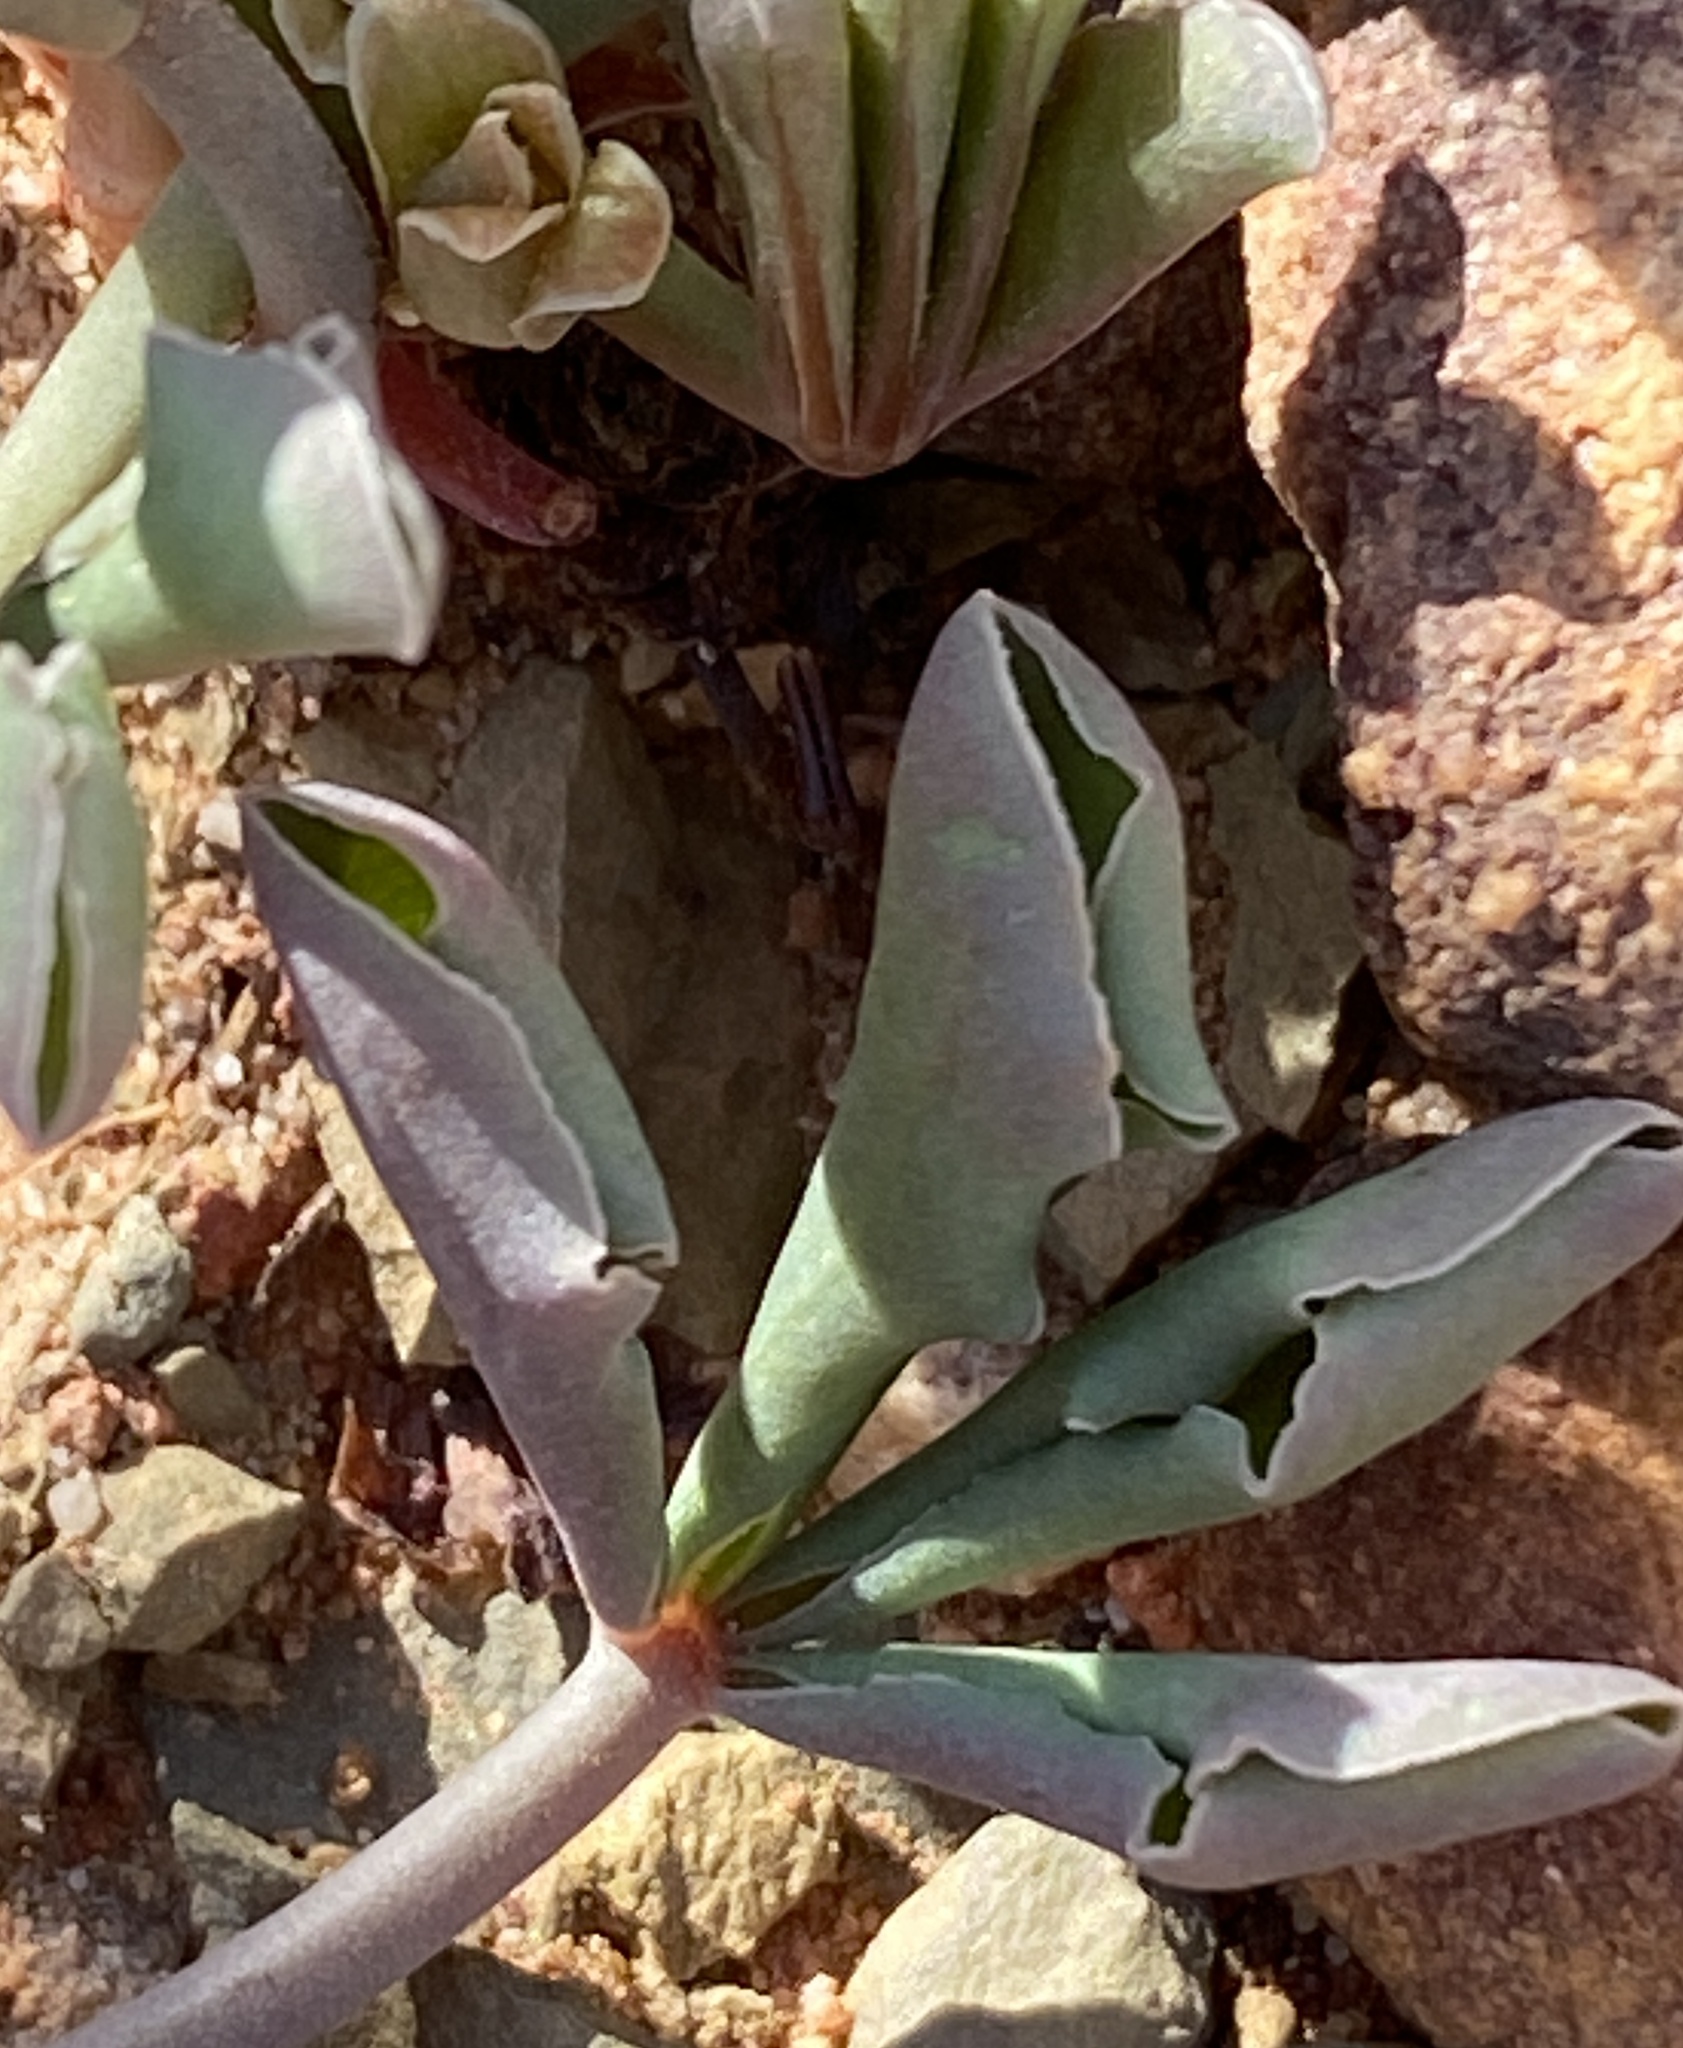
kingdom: Plantae
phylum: Tracheophyta
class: Magnoliopsida
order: Oxalidales
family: Oxalidaceae
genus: Oxalis
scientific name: Oxalis flava
